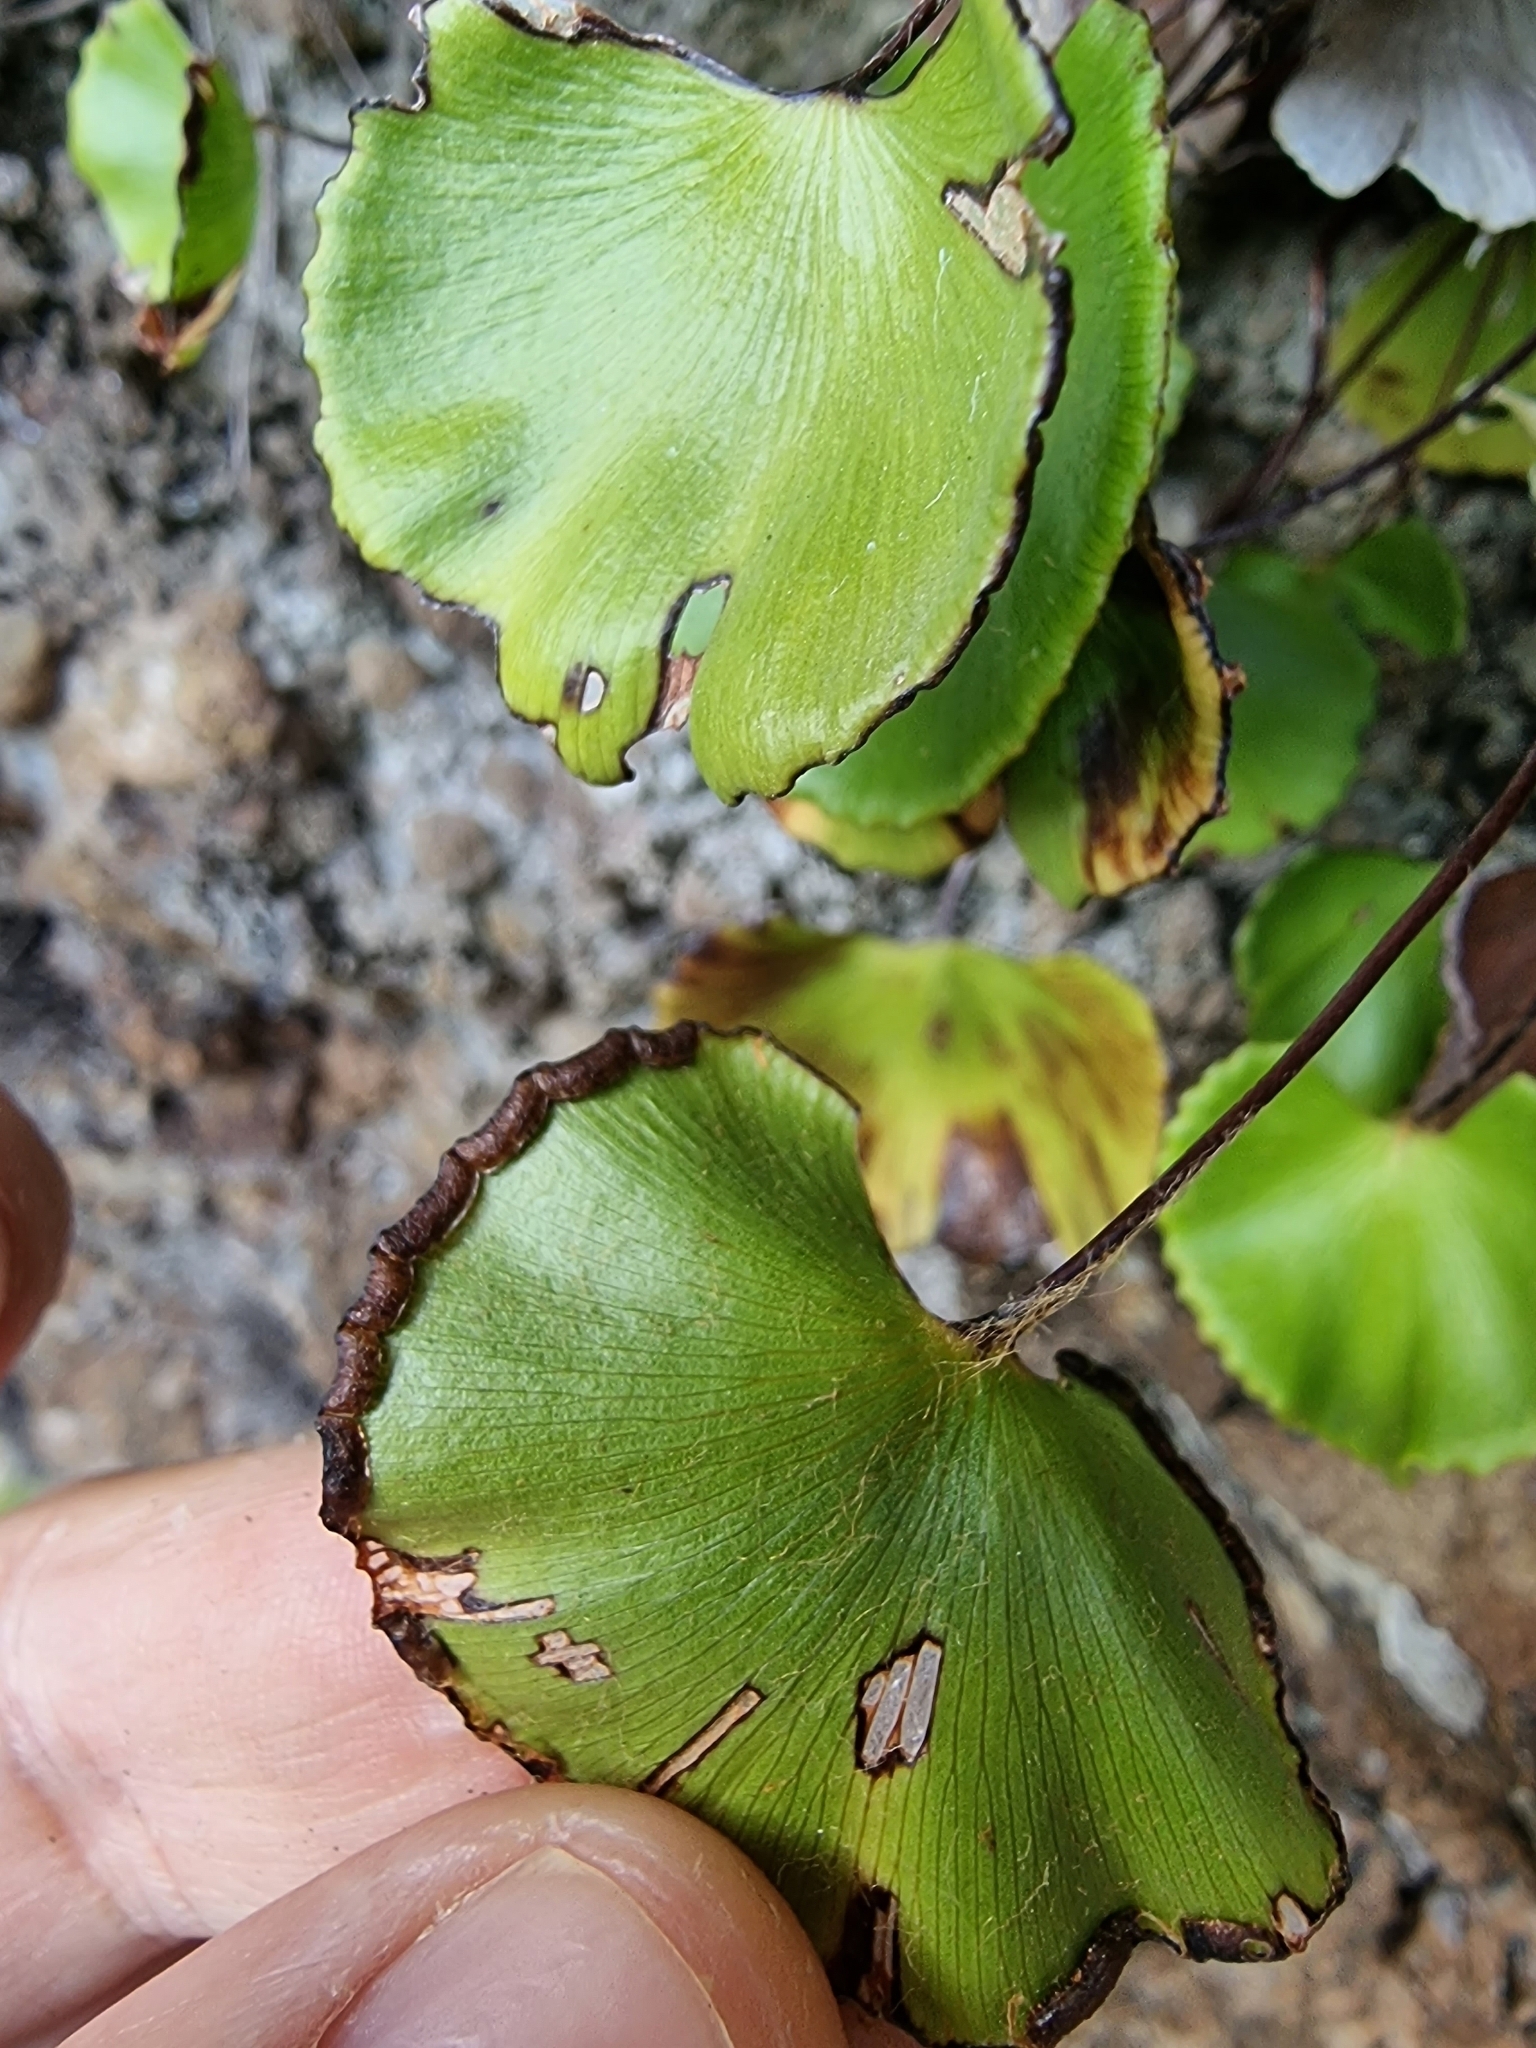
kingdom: Plantae
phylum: Tracheophyta
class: Polypodiopsida
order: Polypodiales
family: Pteridaceae
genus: Adiantum
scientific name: Adiantum reniforme
